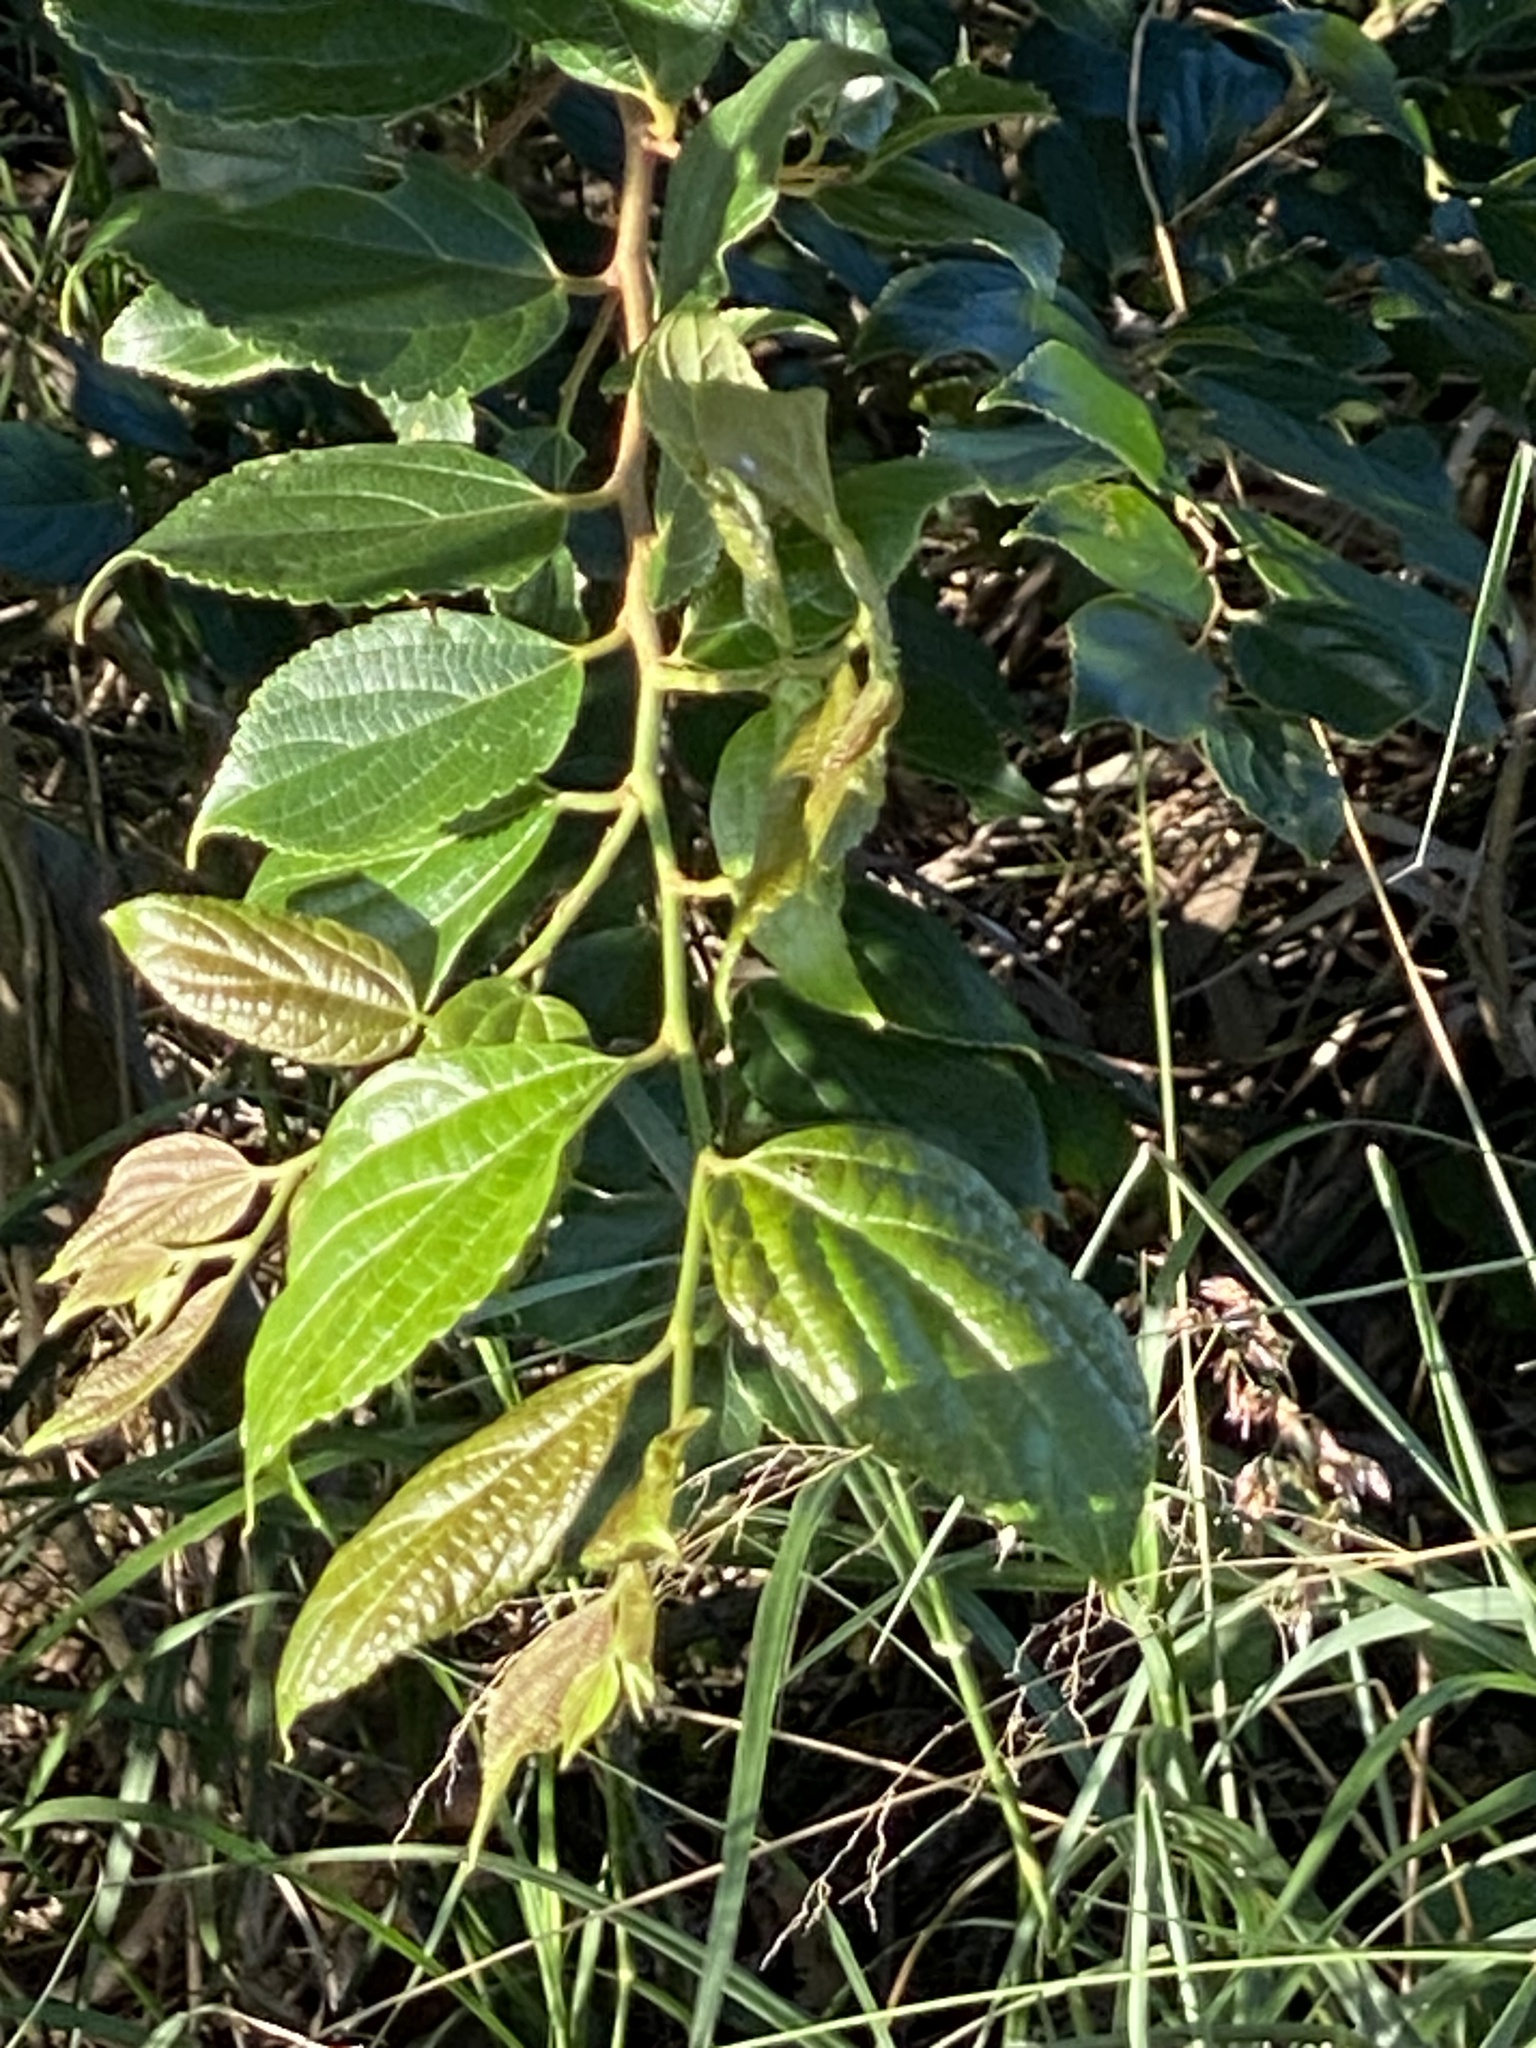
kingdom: Plantae
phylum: Tracheophyta
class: Magnoliopsida
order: Rosales
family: Cannabaceae
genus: Celtis
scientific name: Celtis sinensis
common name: Chinese hackberry
